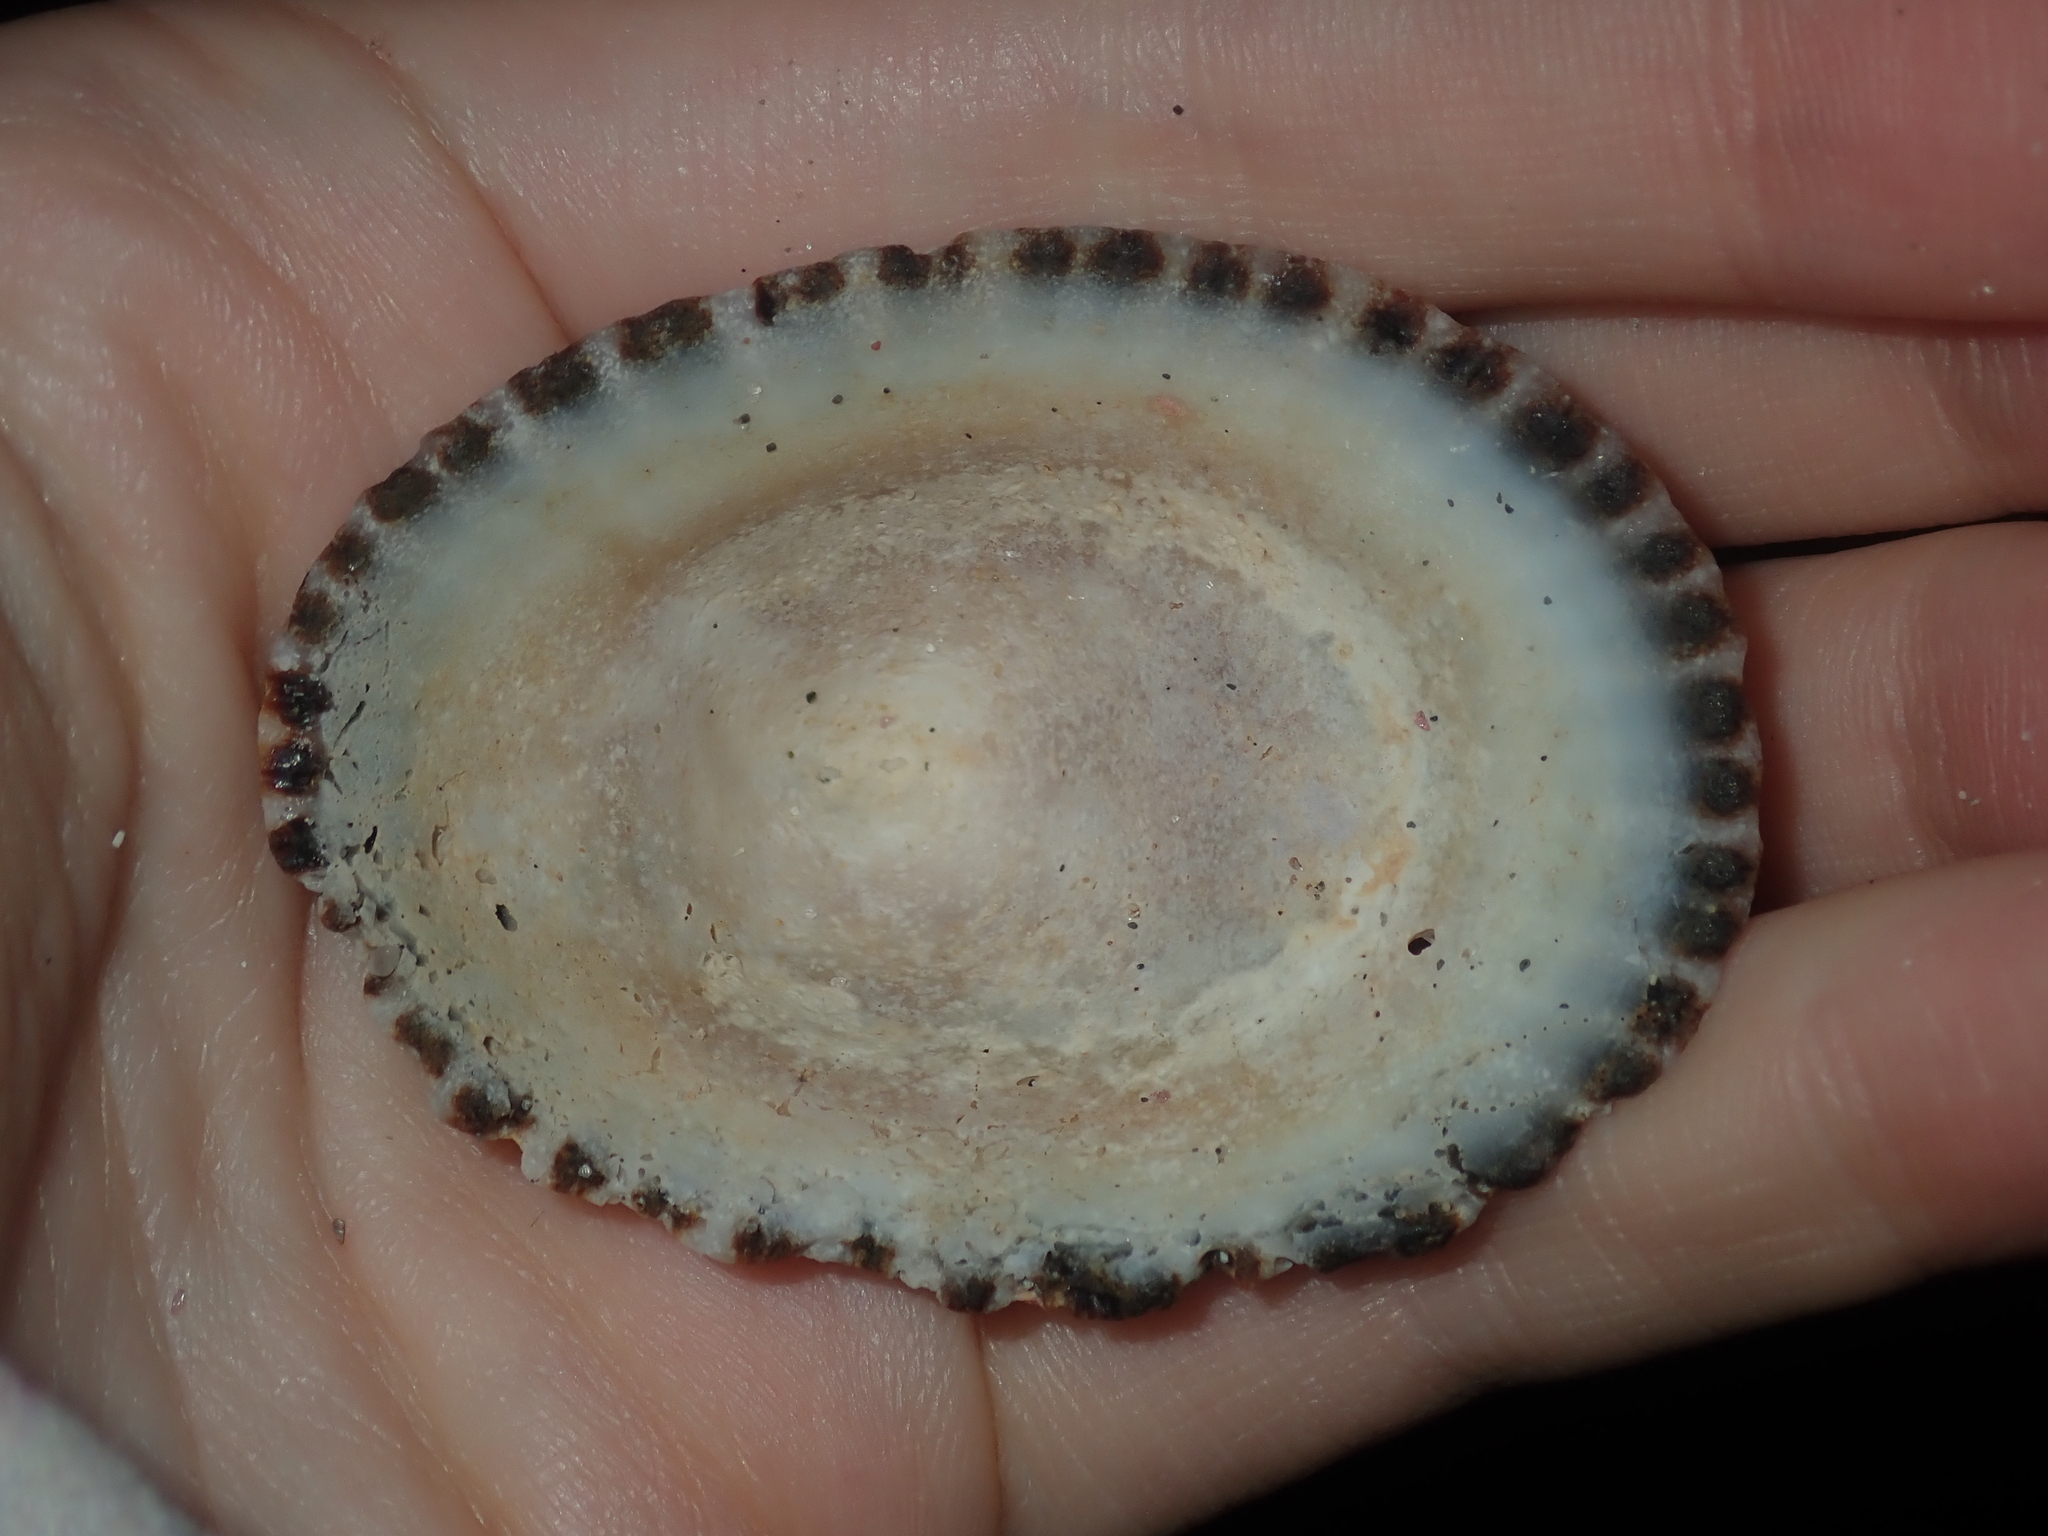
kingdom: Animalia
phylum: Mollusca
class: Gastropoda
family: Patellidae
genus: Scutellastra
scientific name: Scutellastra laticostata
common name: Giant limpet
